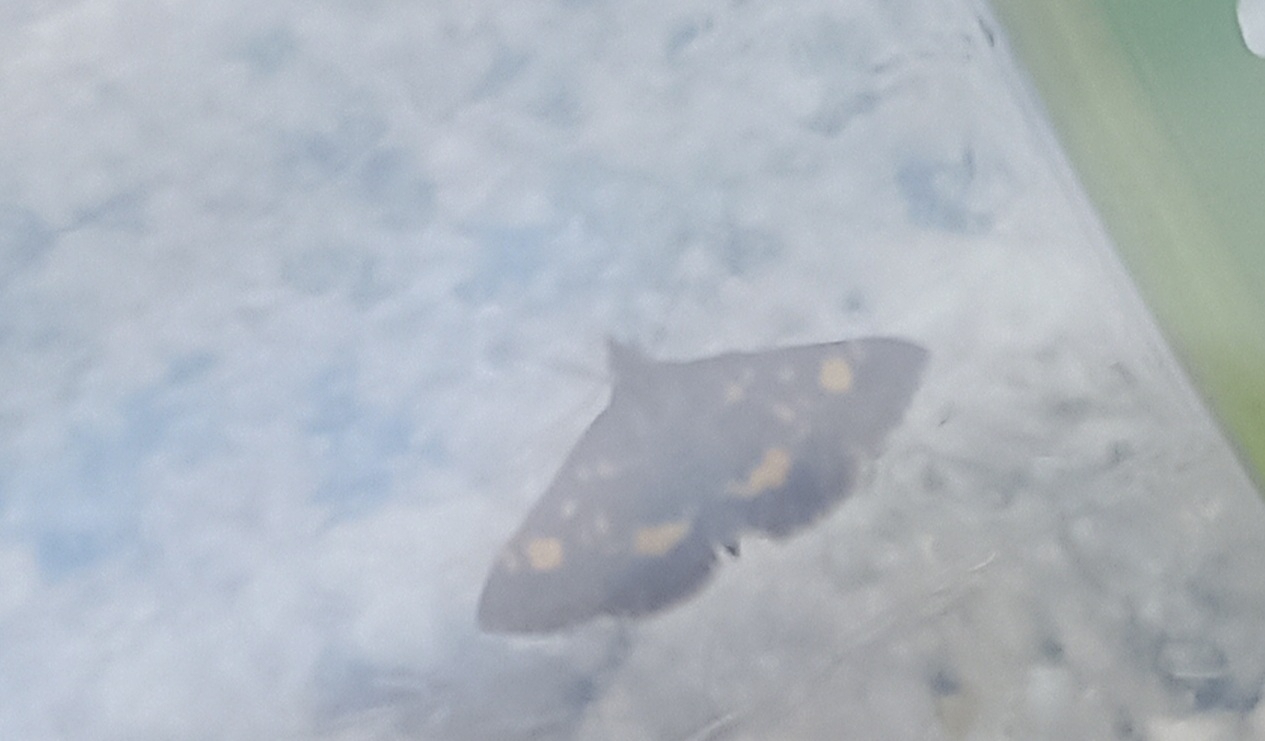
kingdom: Animalia
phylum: Arthropoda
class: Insecta
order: Lepidoptera
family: Crambidae
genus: Pyrausta
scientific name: Pyrausta aurata
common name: Small purple & gold
